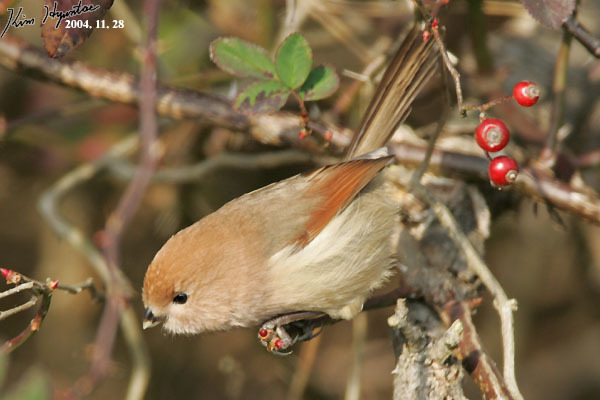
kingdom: Animalia
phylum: Chordata
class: Aves
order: Passeriformes
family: Sylviidae
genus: Sinosuthora
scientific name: Sinosuthora webbiana
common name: Vinous-throated parrotbill
